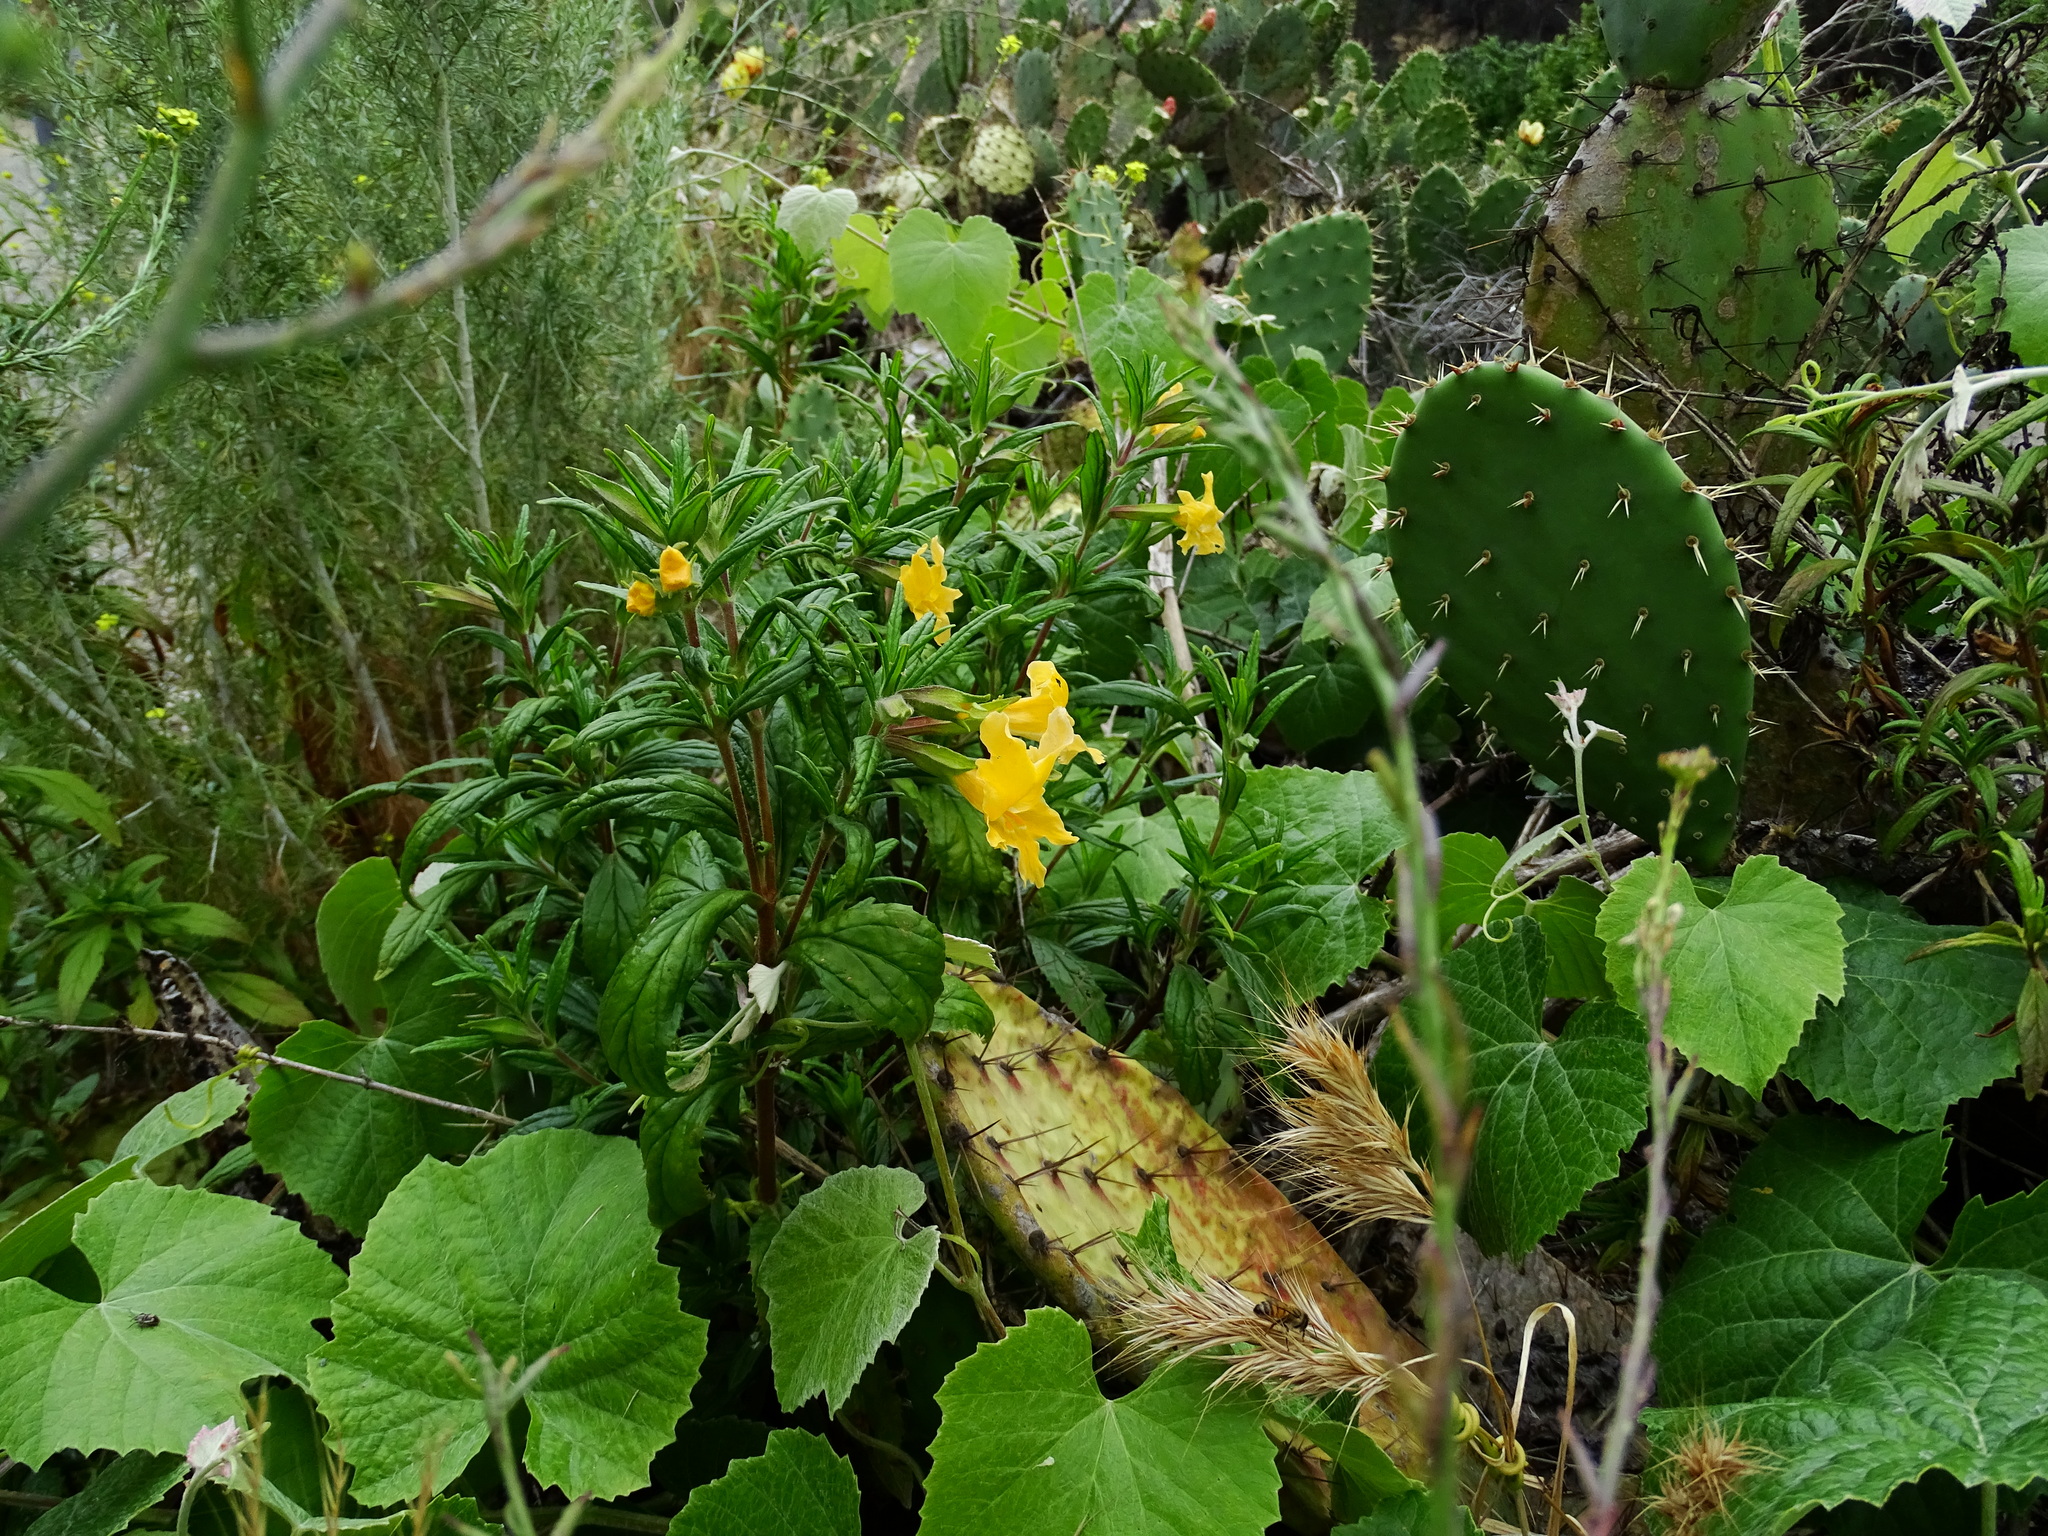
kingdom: Plantae
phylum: Tracheophyta
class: Magnoliopsida
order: Lamiales
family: Phrymaceae
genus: Diplacus
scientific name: Diplacus longiflorus
